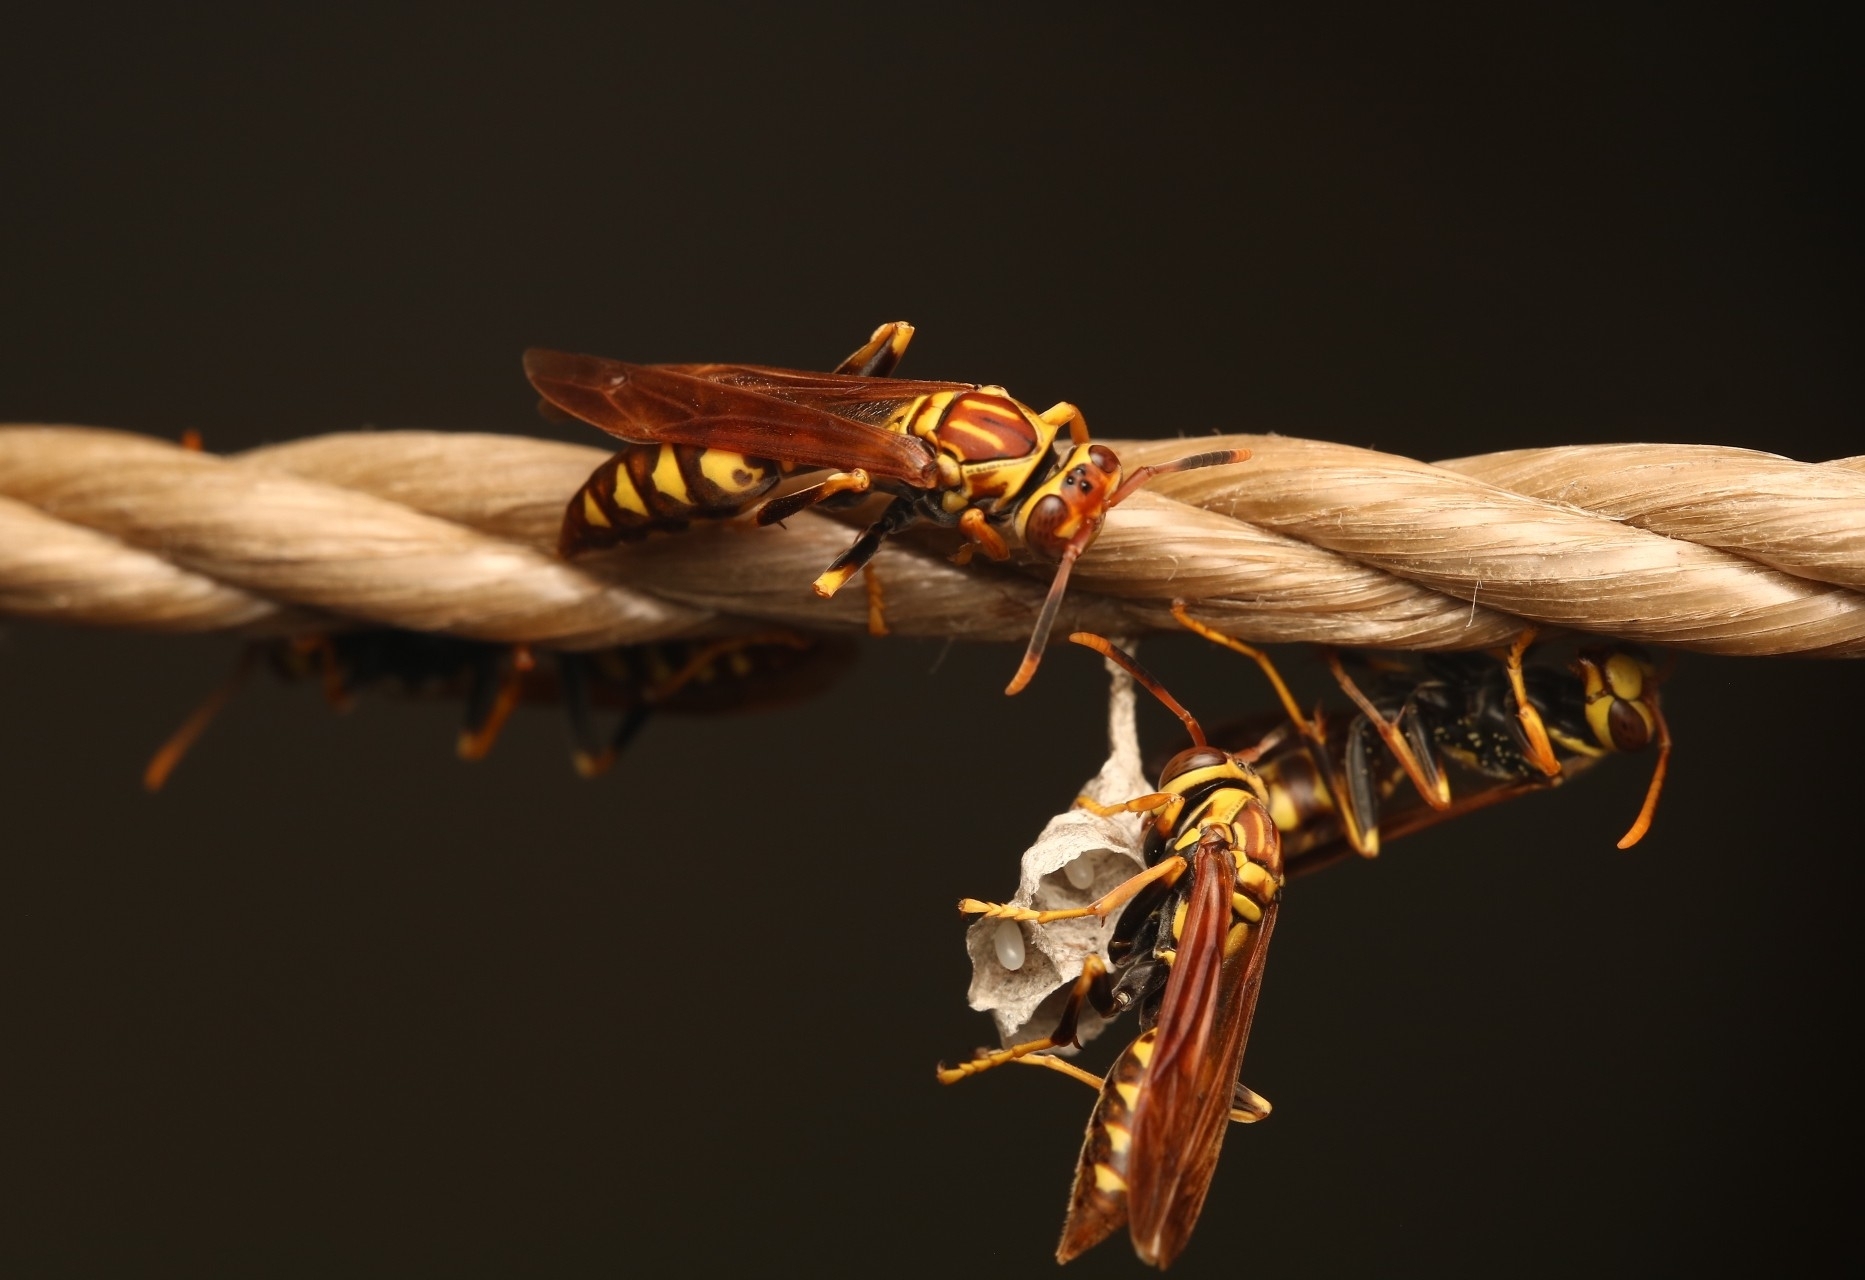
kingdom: Animalia
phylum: Arthropoda
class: Insecta
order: Hymenoptera
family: Eumenidae
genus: Polistes
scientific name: Polistes myersi
